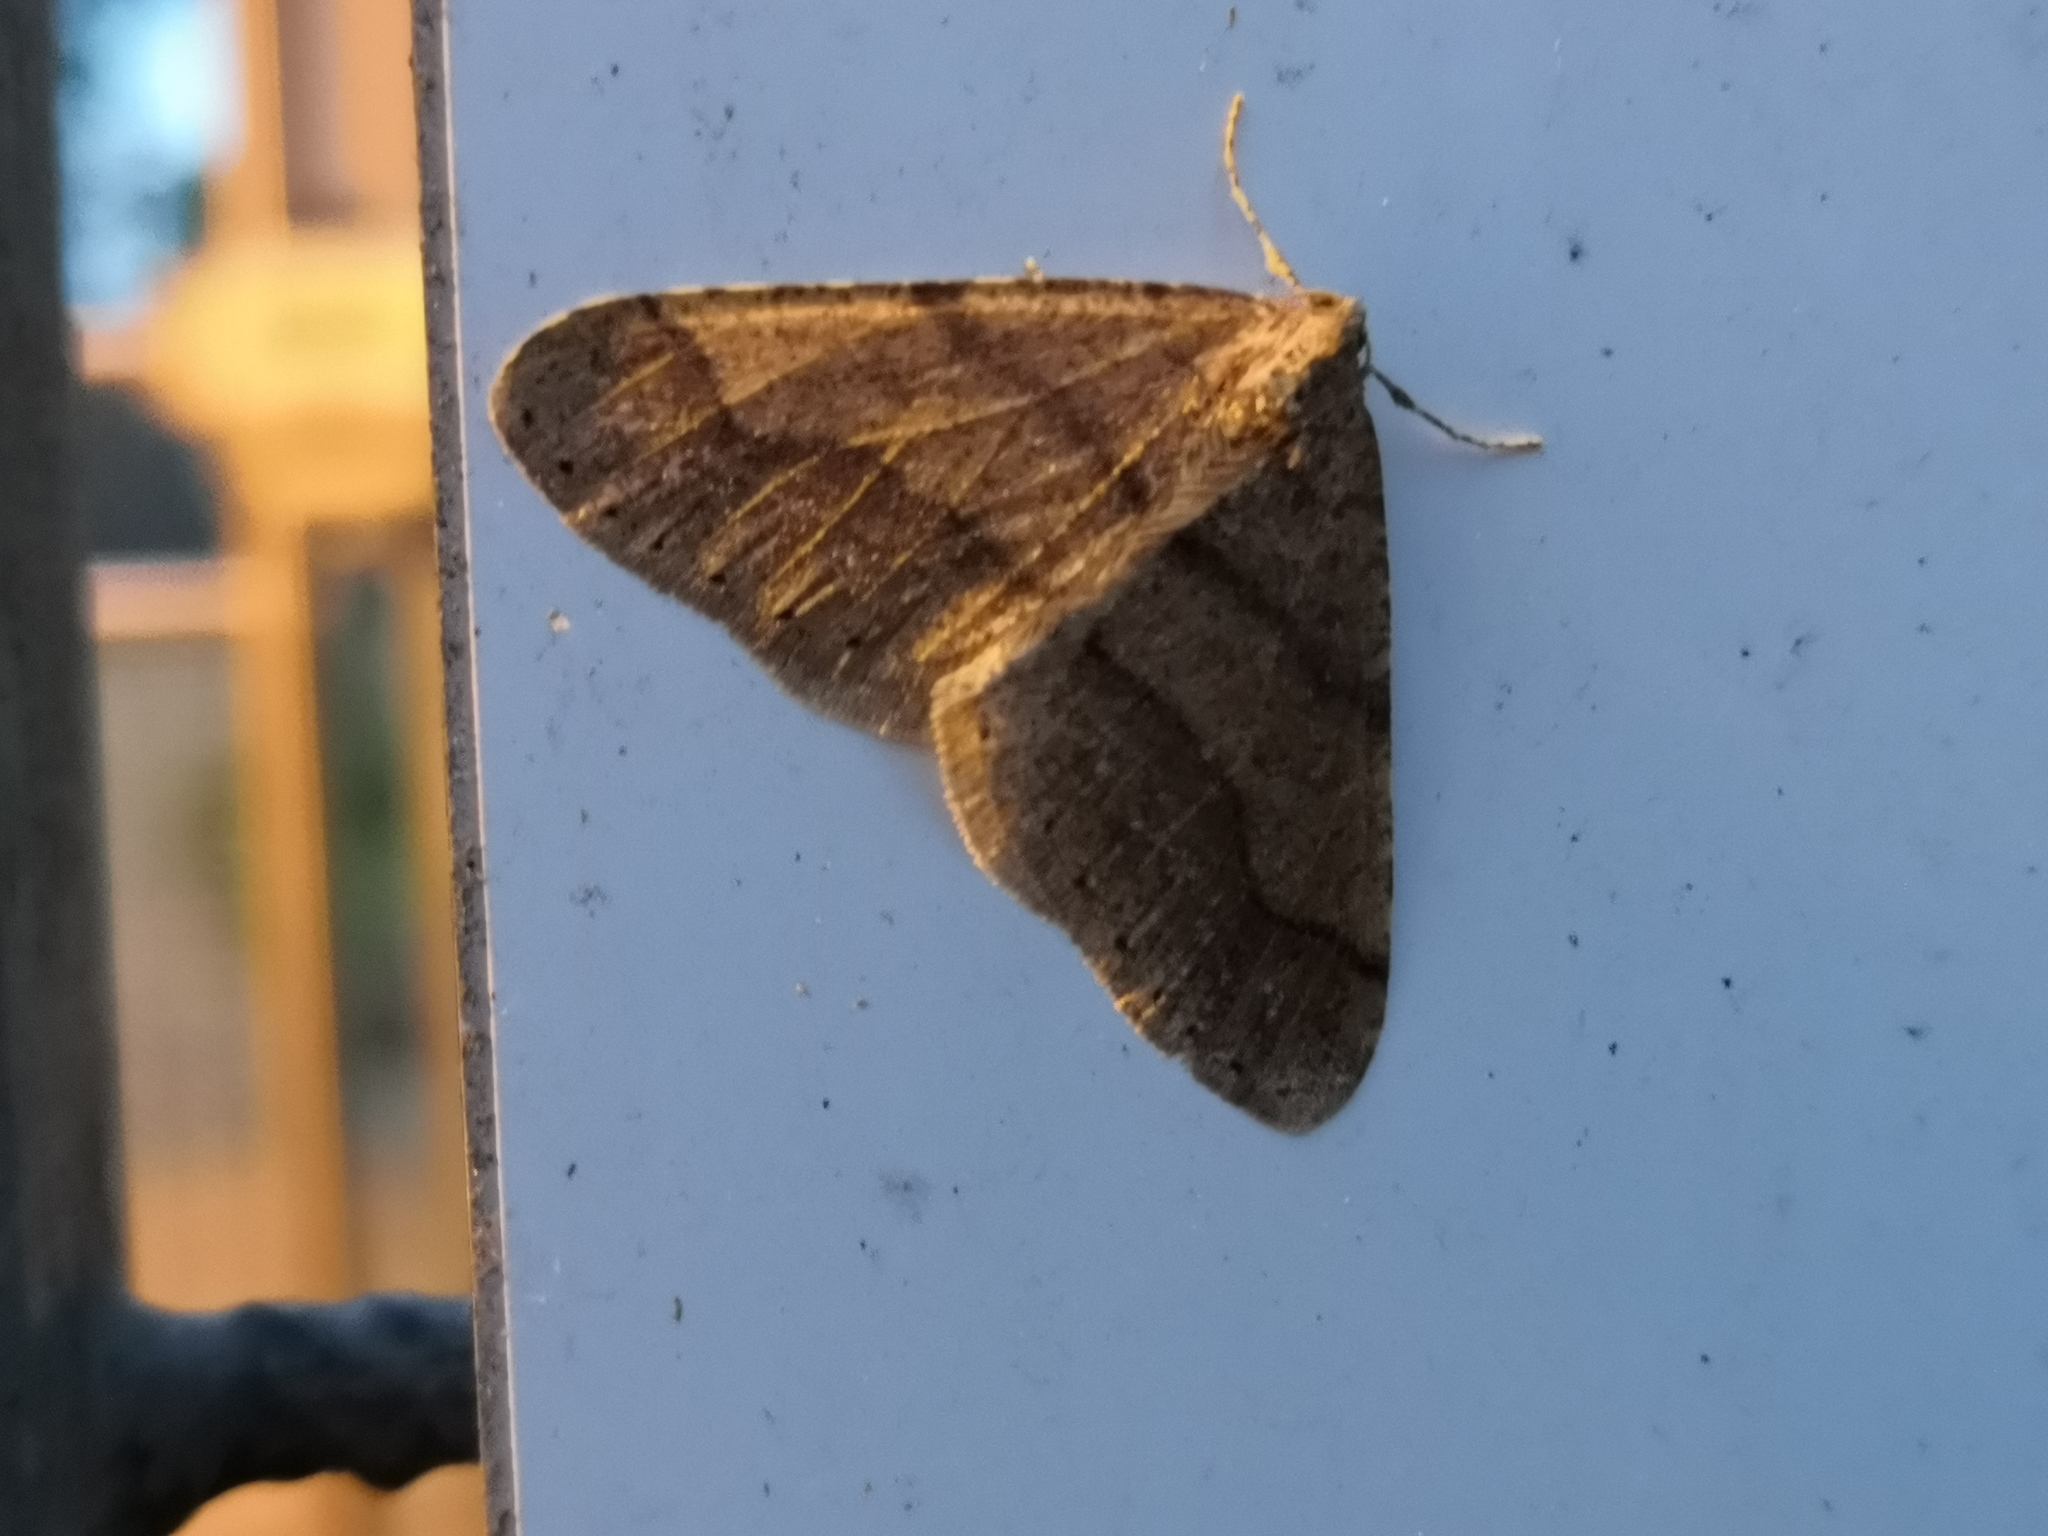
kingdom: Animalia
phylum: Arthropoda
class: Insecta
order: Lepidoptera
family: Geometridae
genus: Agriopis
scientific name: Agriopis marginaria
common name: Dotted border
